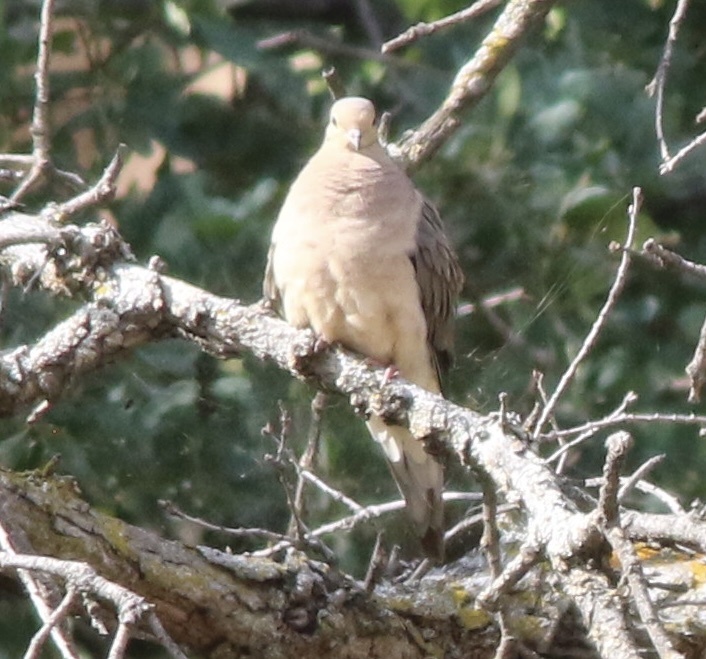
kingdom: Animalia
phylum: Chordata
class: Aves
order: Columbiformes
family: Columbidae
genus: Zenaida
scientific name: Zenaida macroura
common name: Mourning dove
